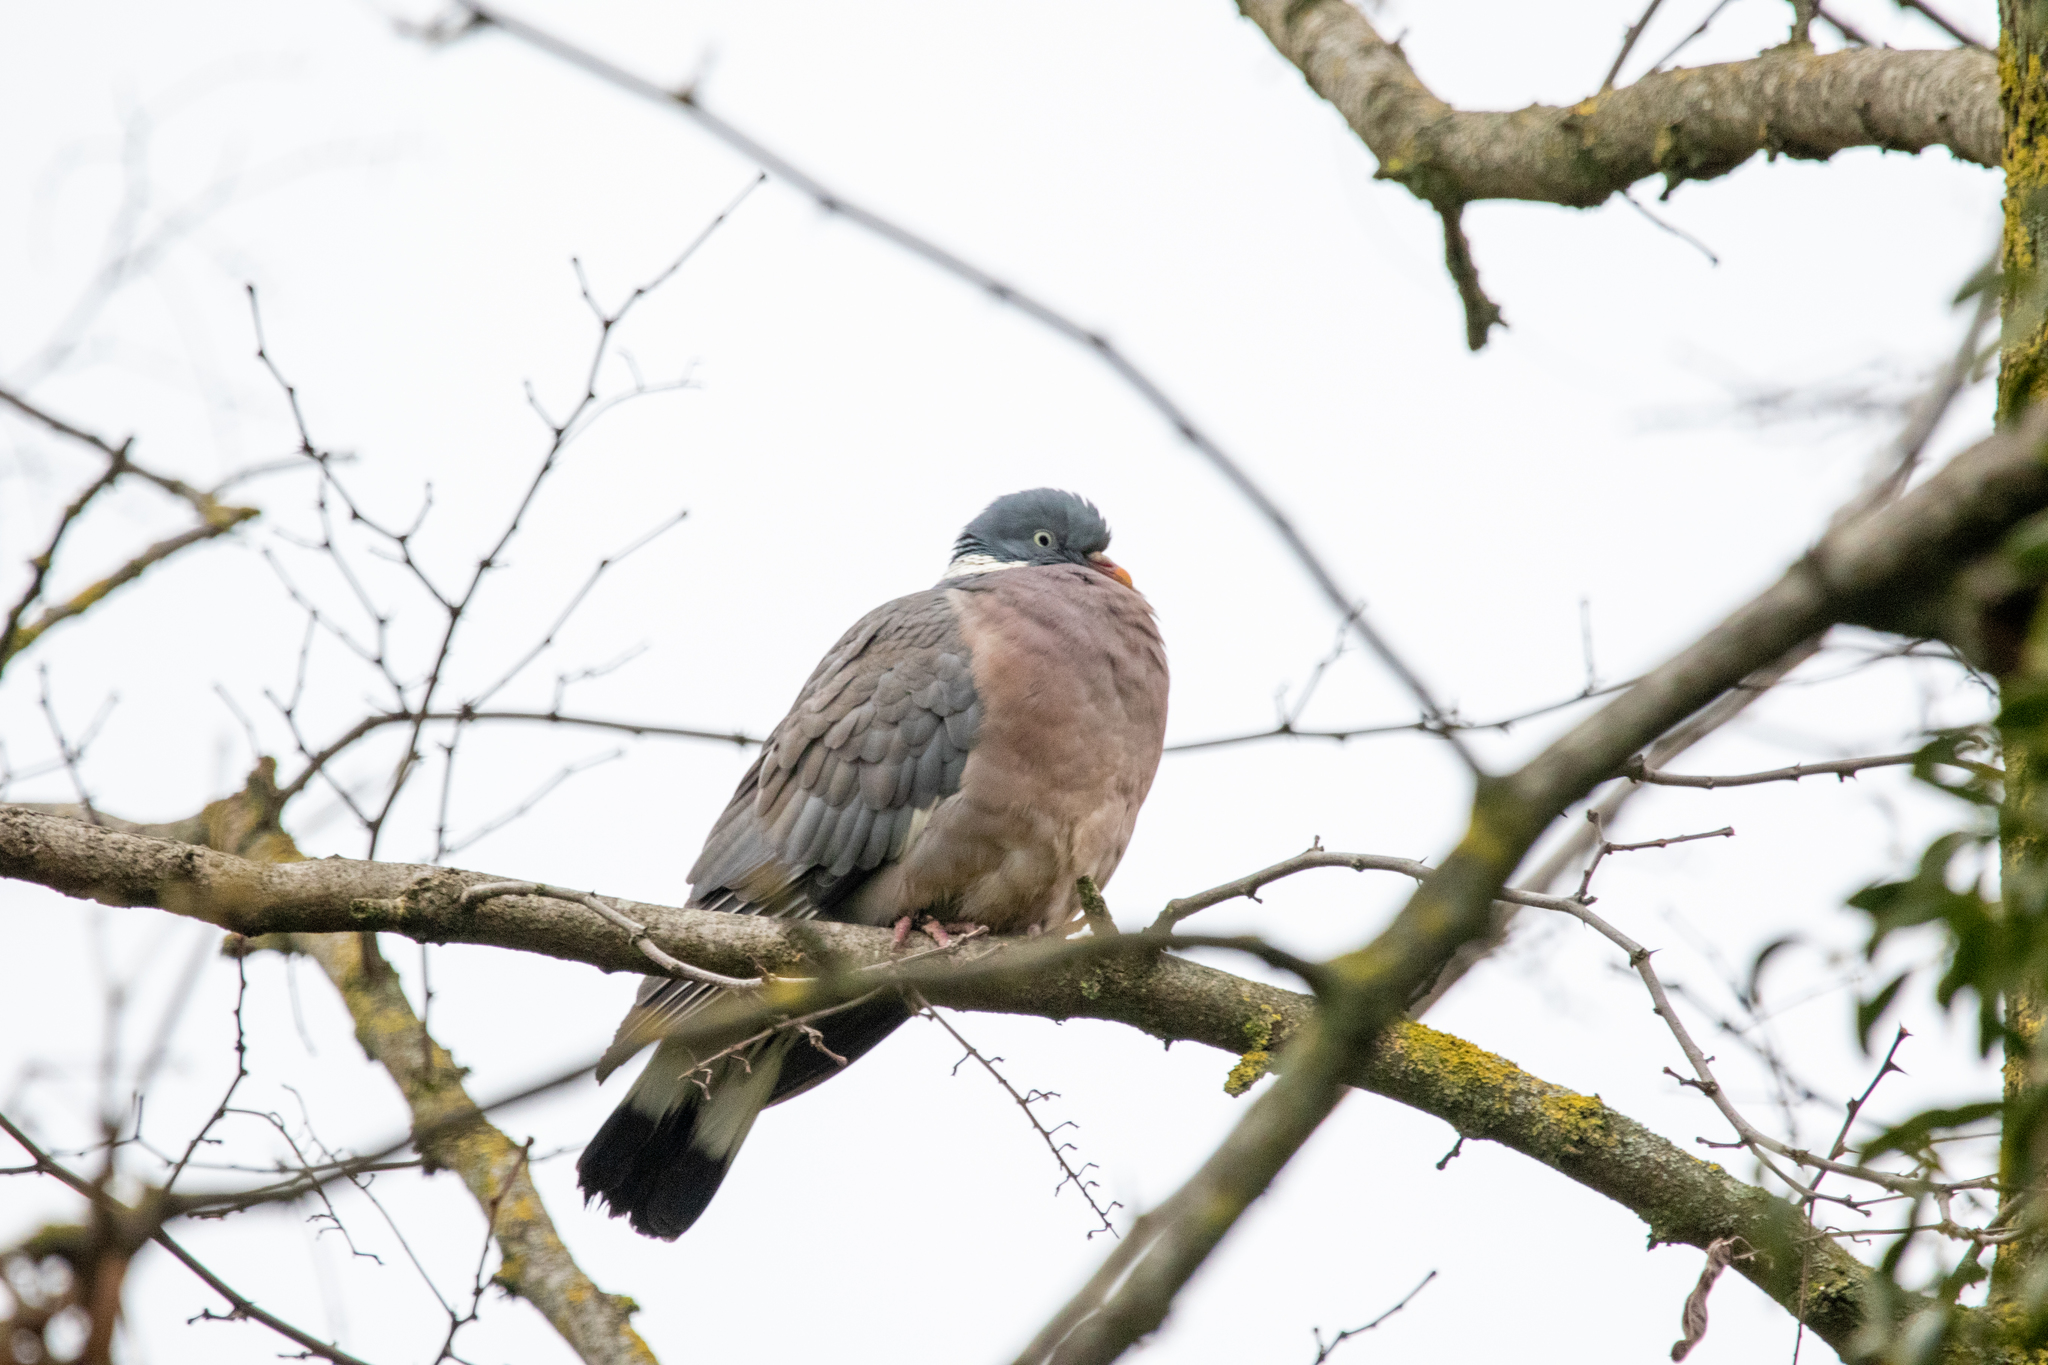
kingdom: Animalia
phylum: Chordata
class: Aves
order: Columbiformes
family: Columbidae
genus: Columba
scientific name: Columba palumbus
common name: Common wood pigeon
